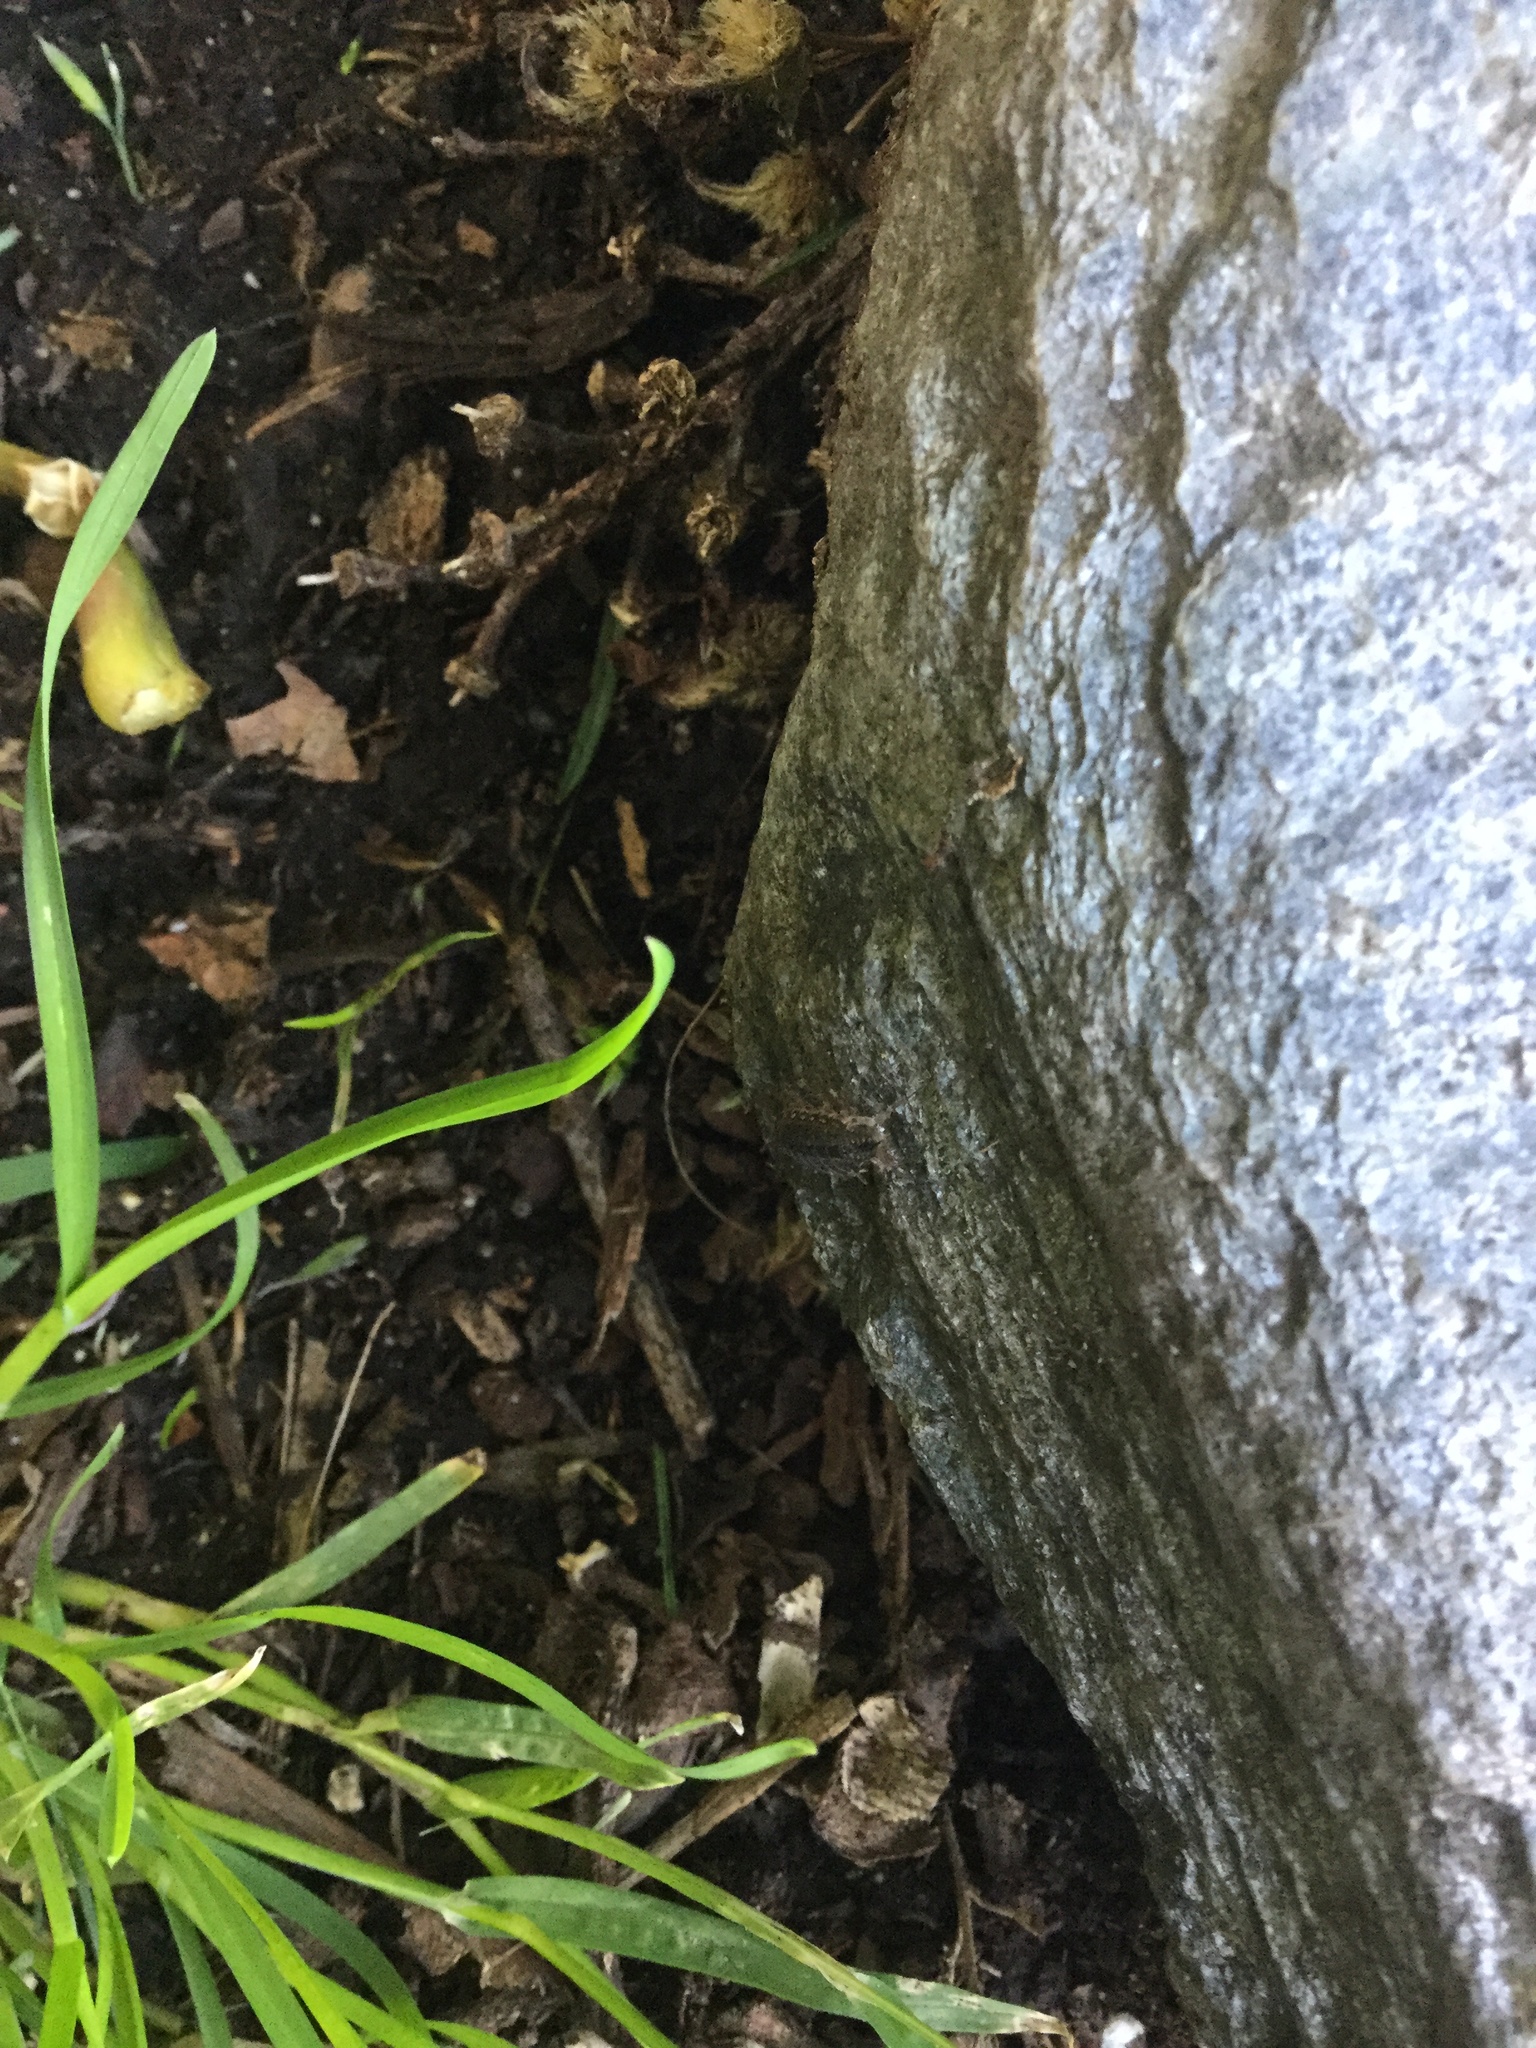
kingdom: Animalia
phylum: Arthropoda
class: Malacostraca
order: Isopoda
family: Philosciidae
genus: Philoscia
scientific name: Philoscia muscorum
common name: Common striped woodlouse
